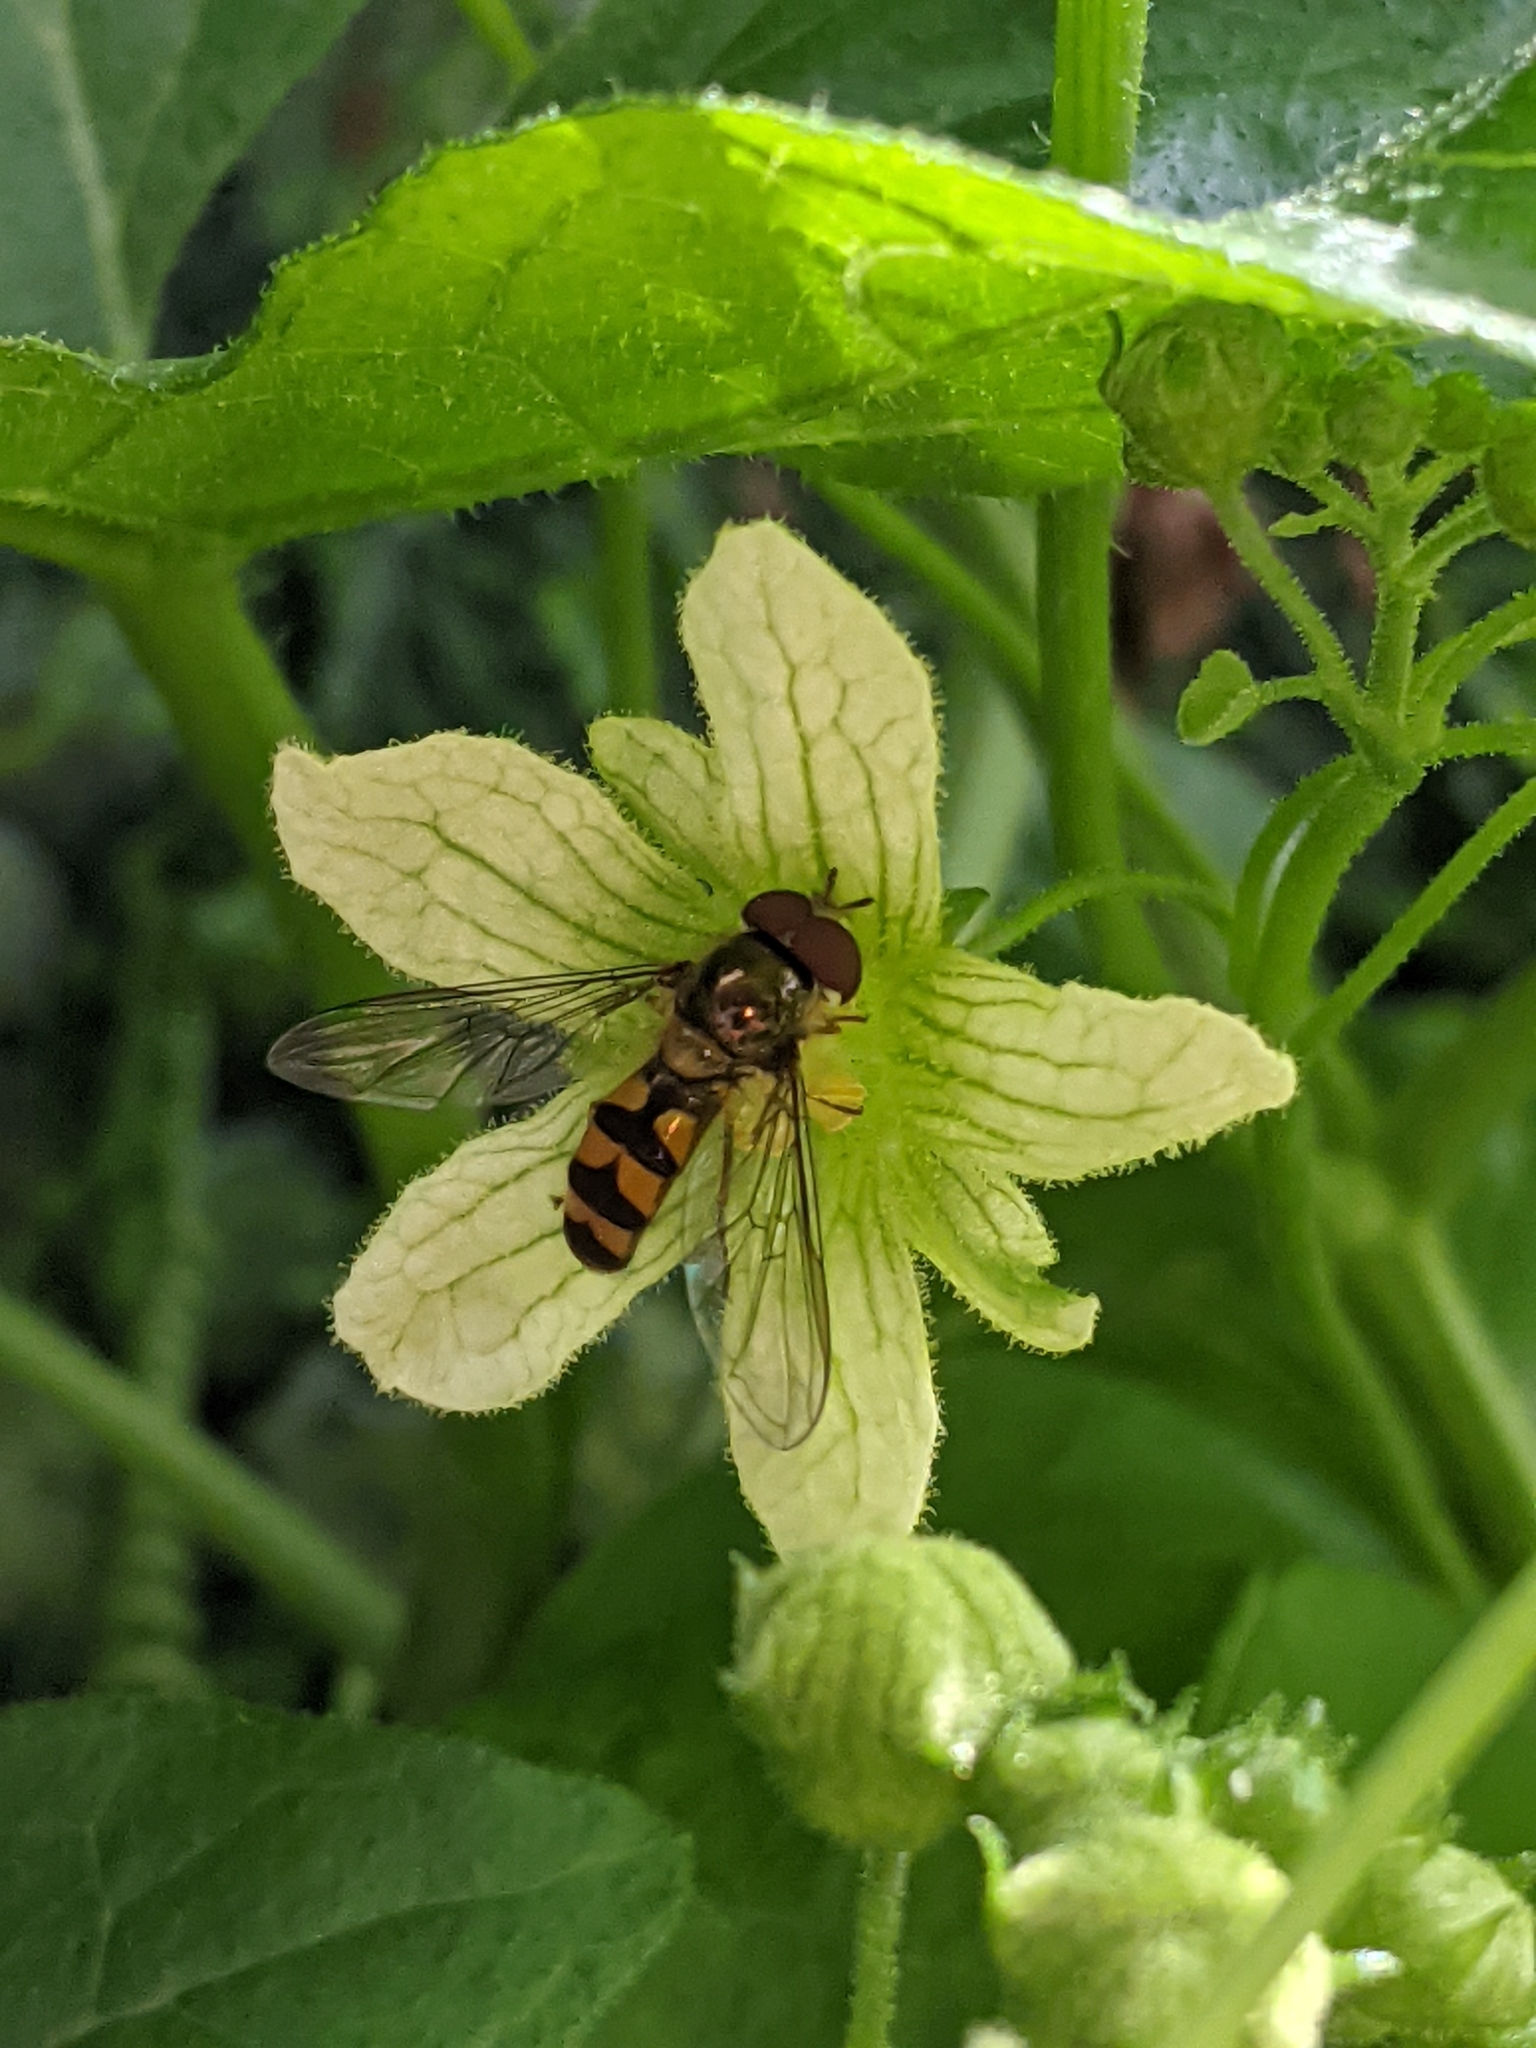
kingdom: Animalia
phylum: Arthropoda
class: Insecta
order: Diptera
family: Syrphidae
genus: Meliscaeva
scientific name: Meliscaeva auricollis
